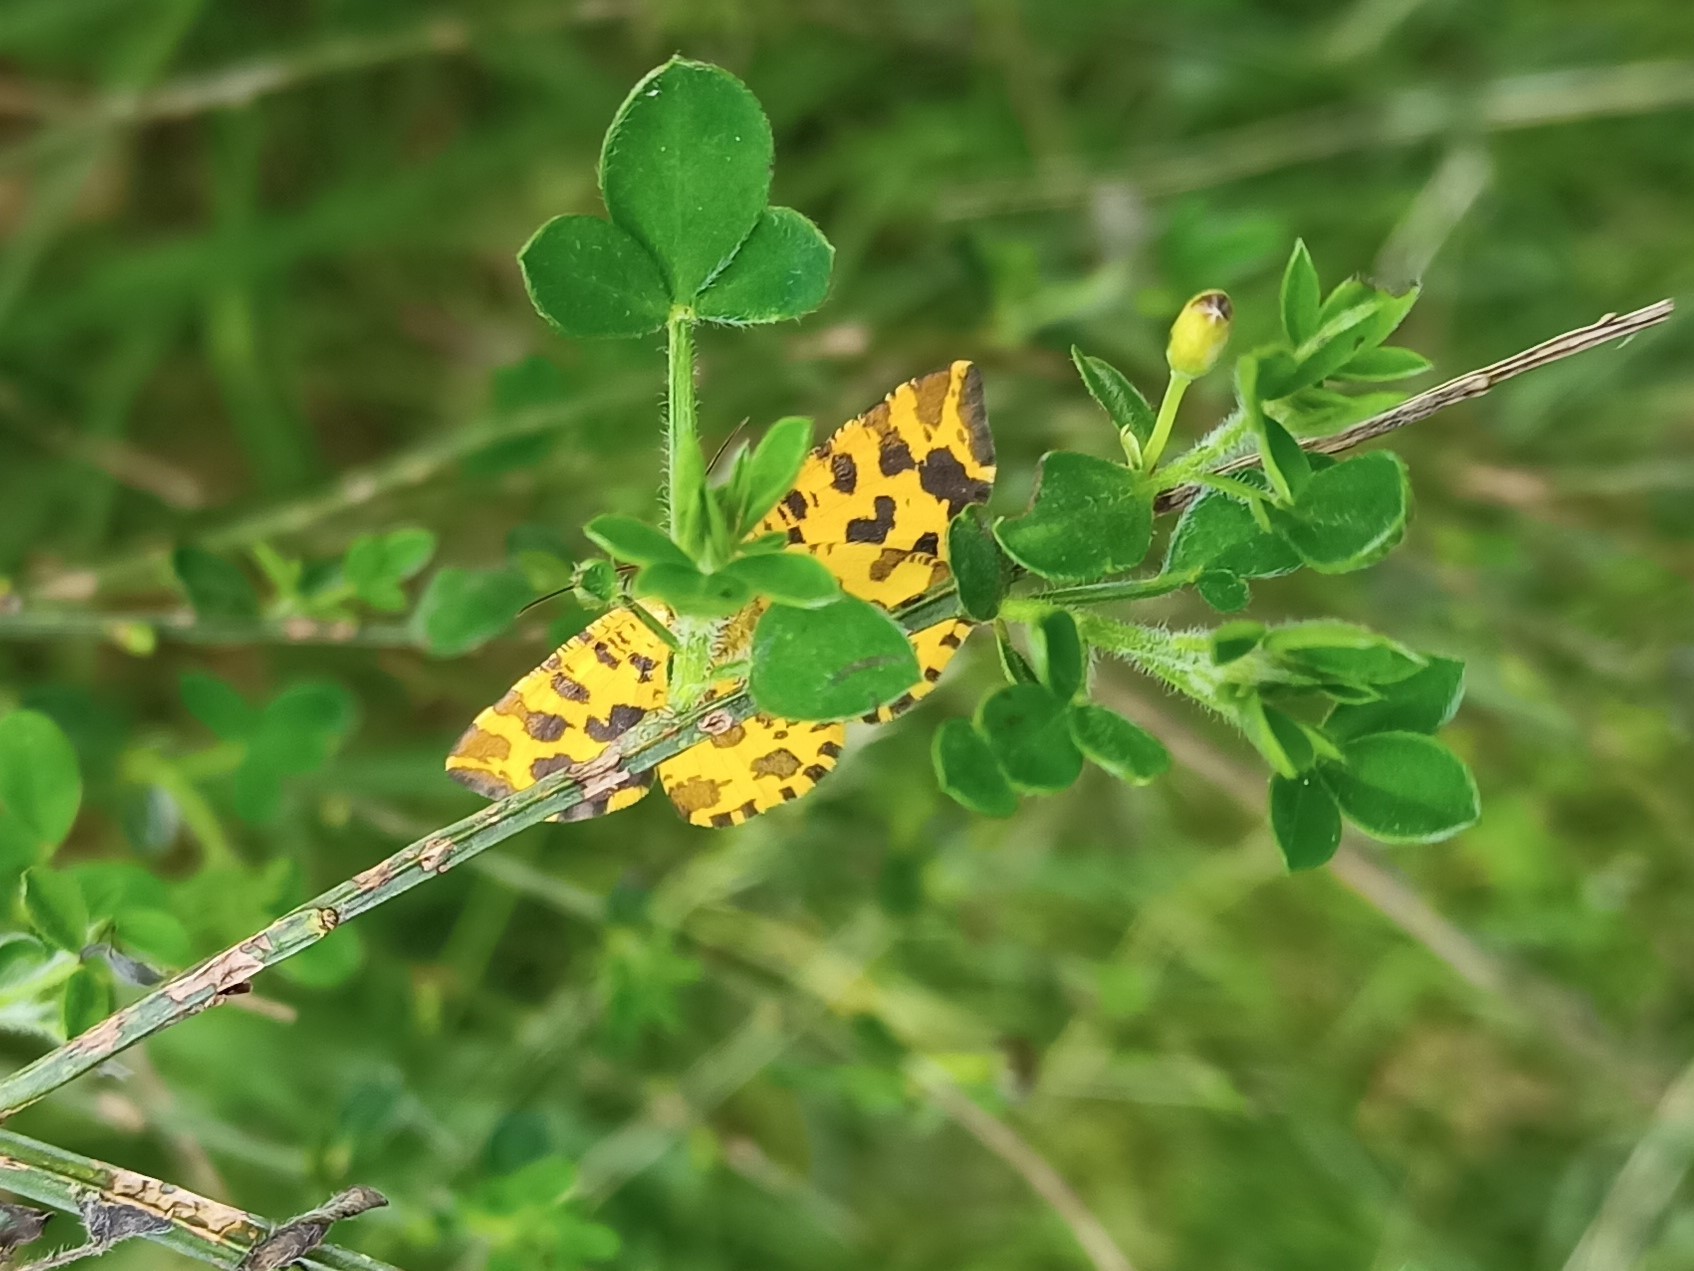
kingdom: Animalia
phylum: Arthropoda
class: Insecta
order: Lepidoptera
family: Geometridae
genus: Pseudopanthera
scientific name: Pseudopanthera macularia
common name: Speckled yellow
